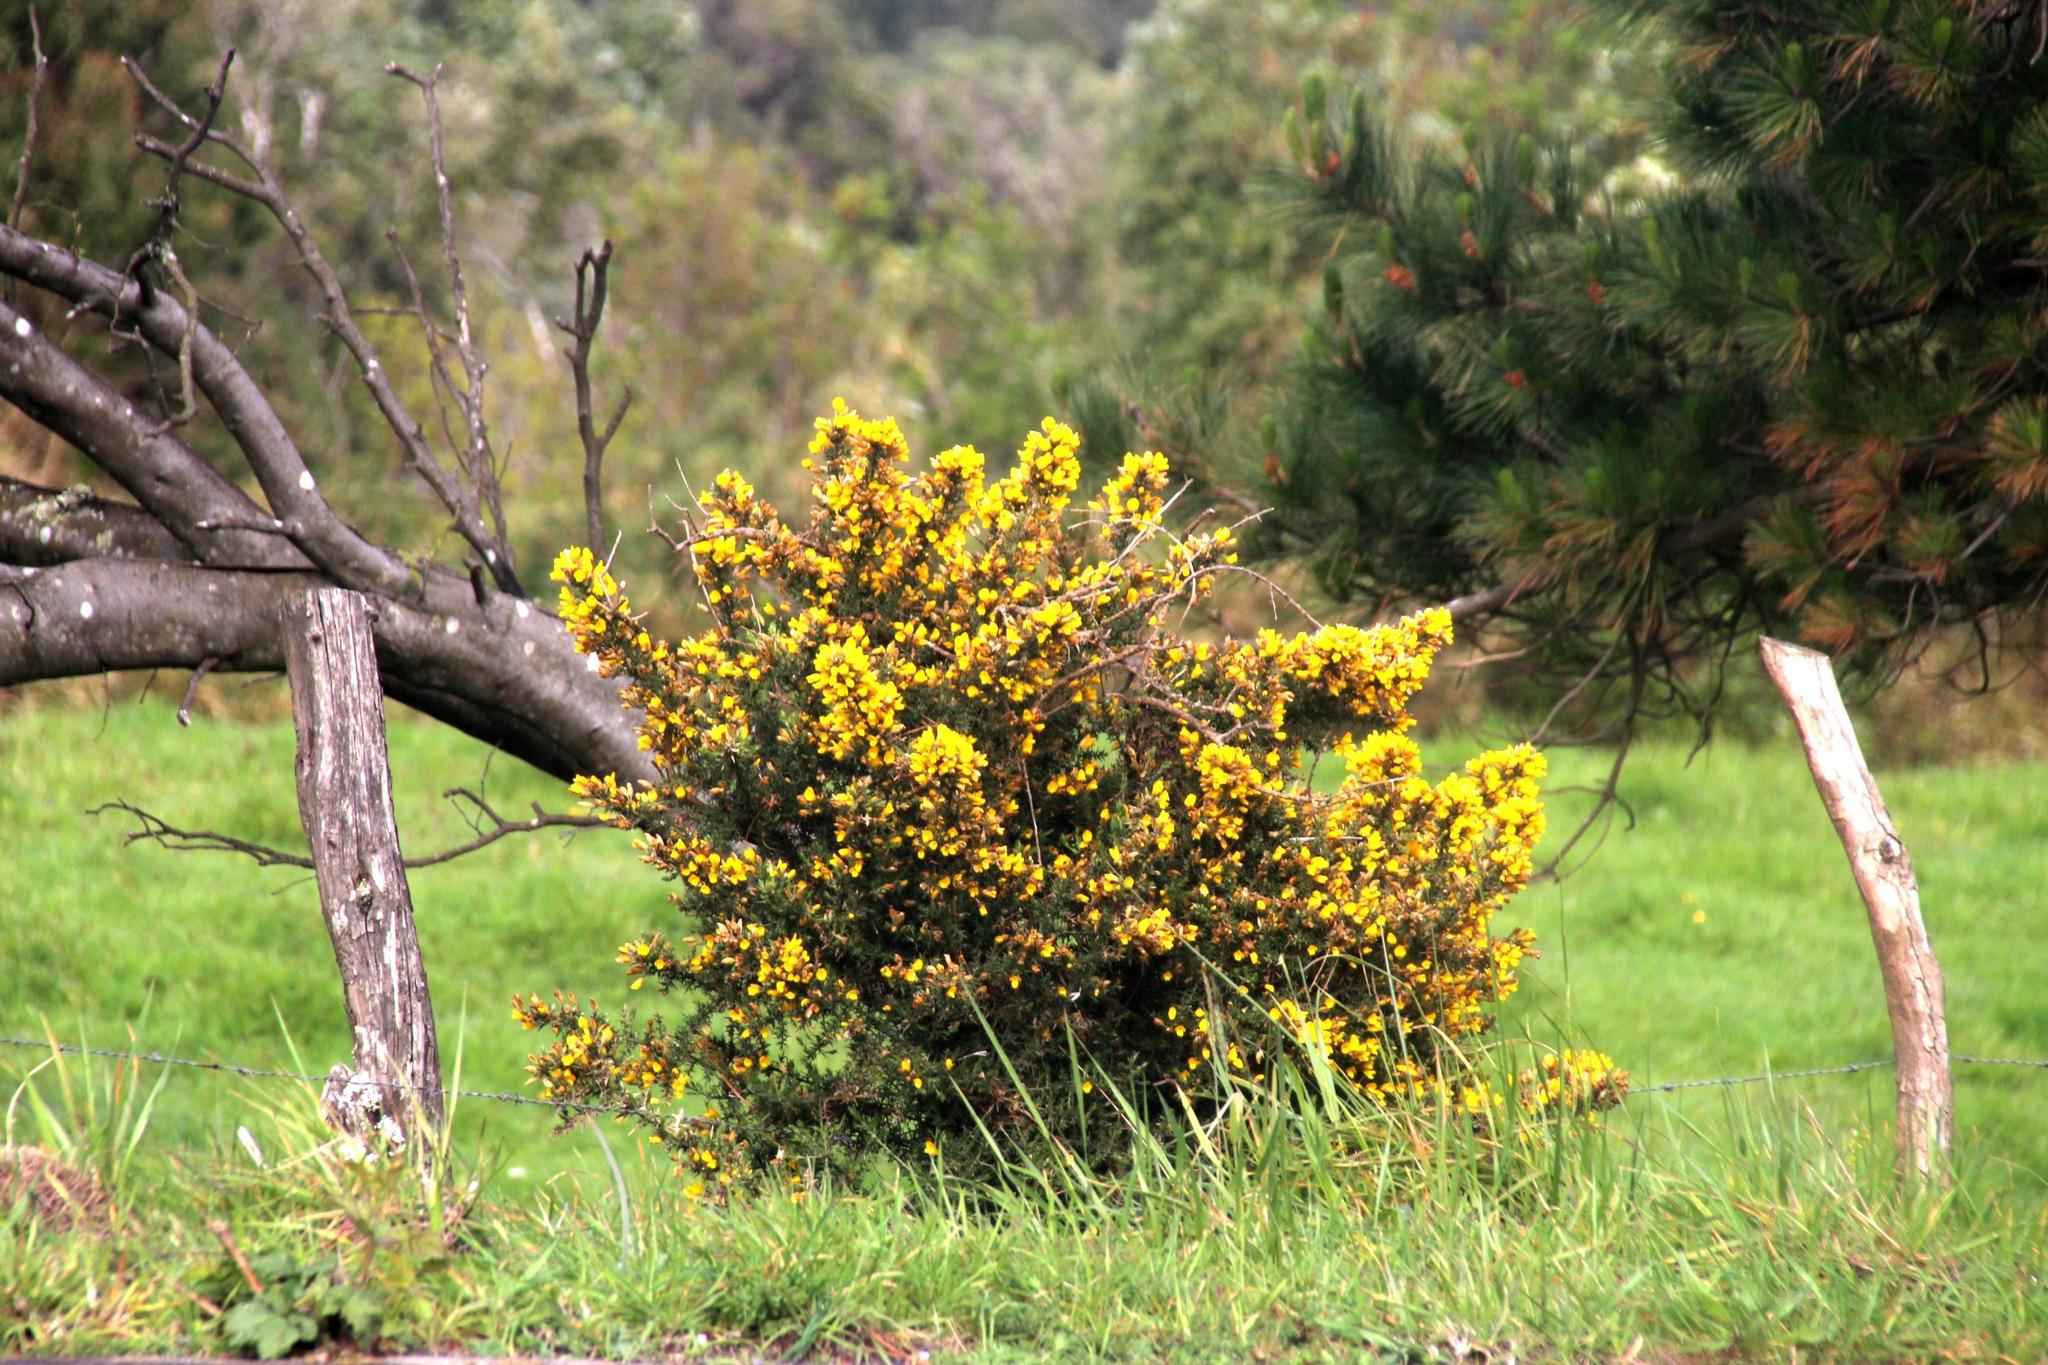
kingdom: Plantae
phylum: Tracheophyta
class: Magnoliopsida
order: Fabales
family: Fabaceae
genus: Ulex
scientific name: Ulex europaeus
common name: Common gorse
